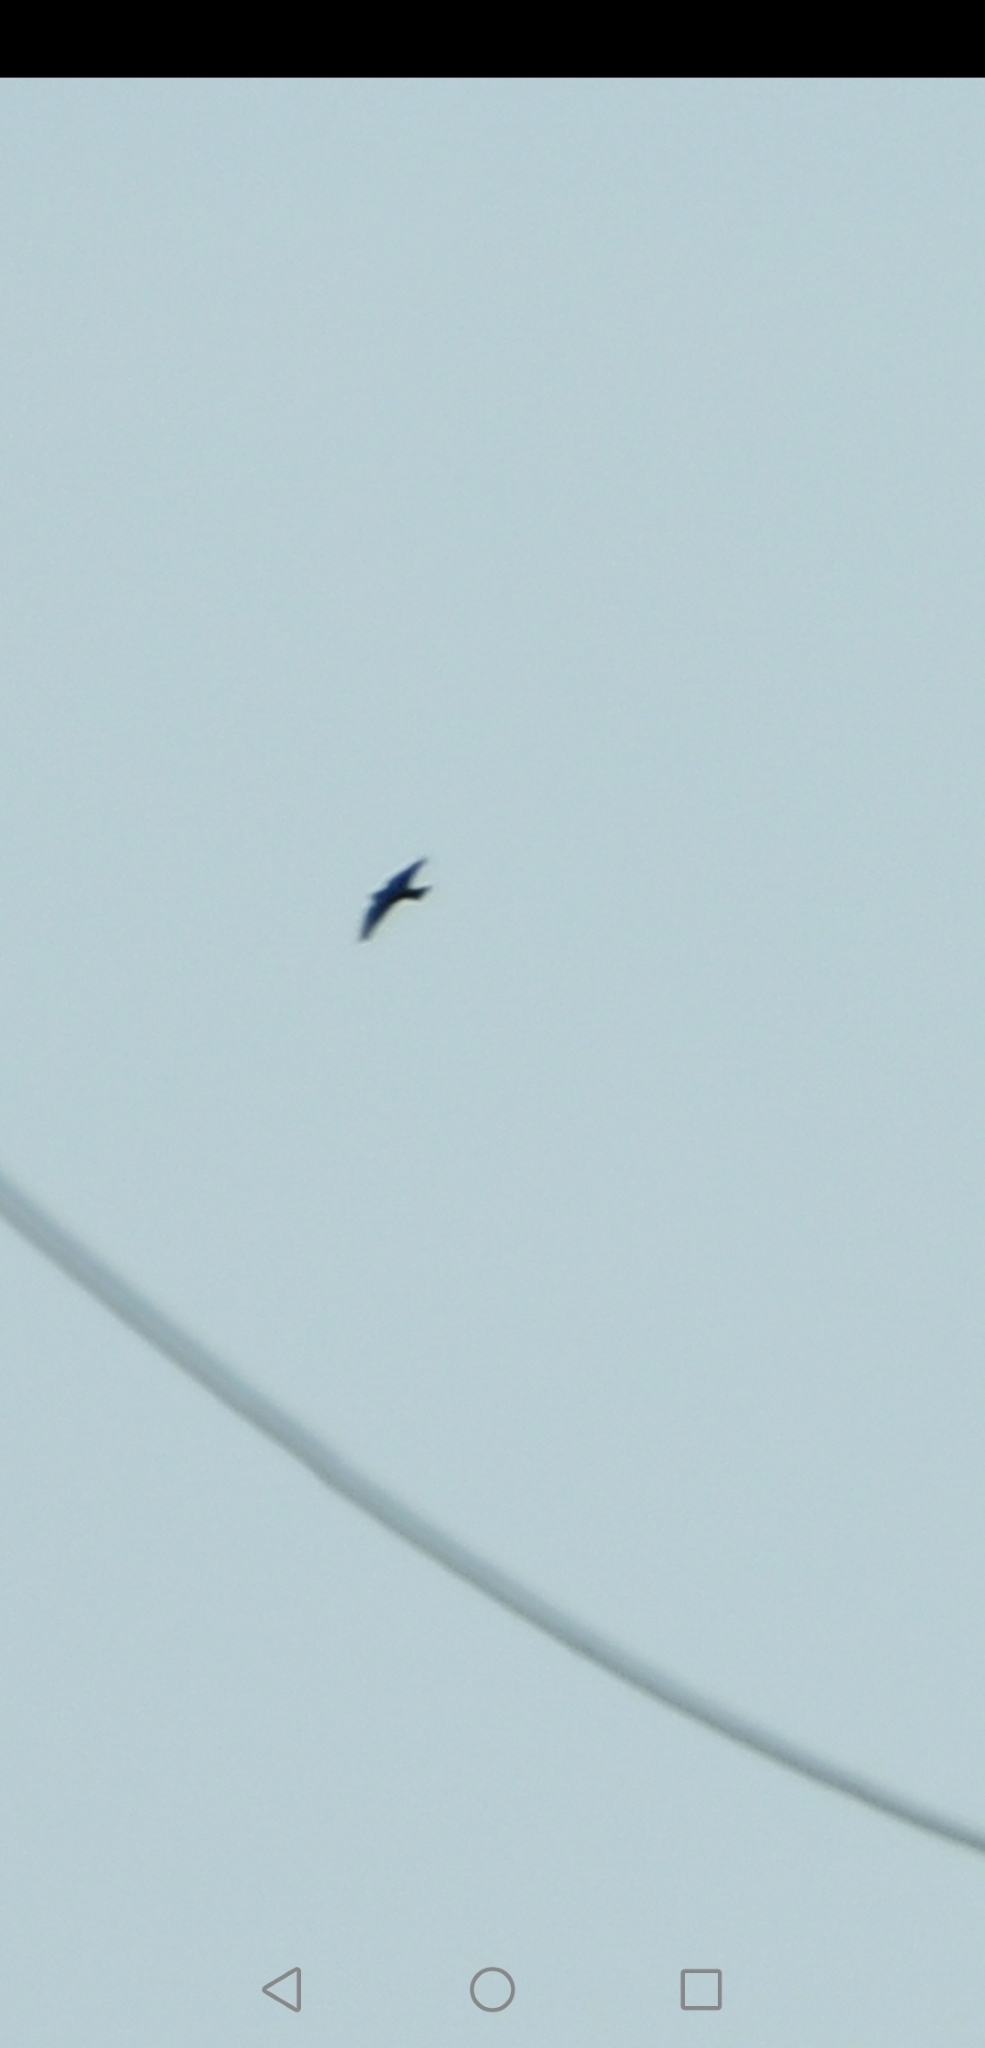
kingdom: Animalia
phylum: Chordata
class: Aves
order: Apodiformes
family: Apodidae
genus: Chaetura
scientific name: Chaetura pelagica
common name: Chimney swift
